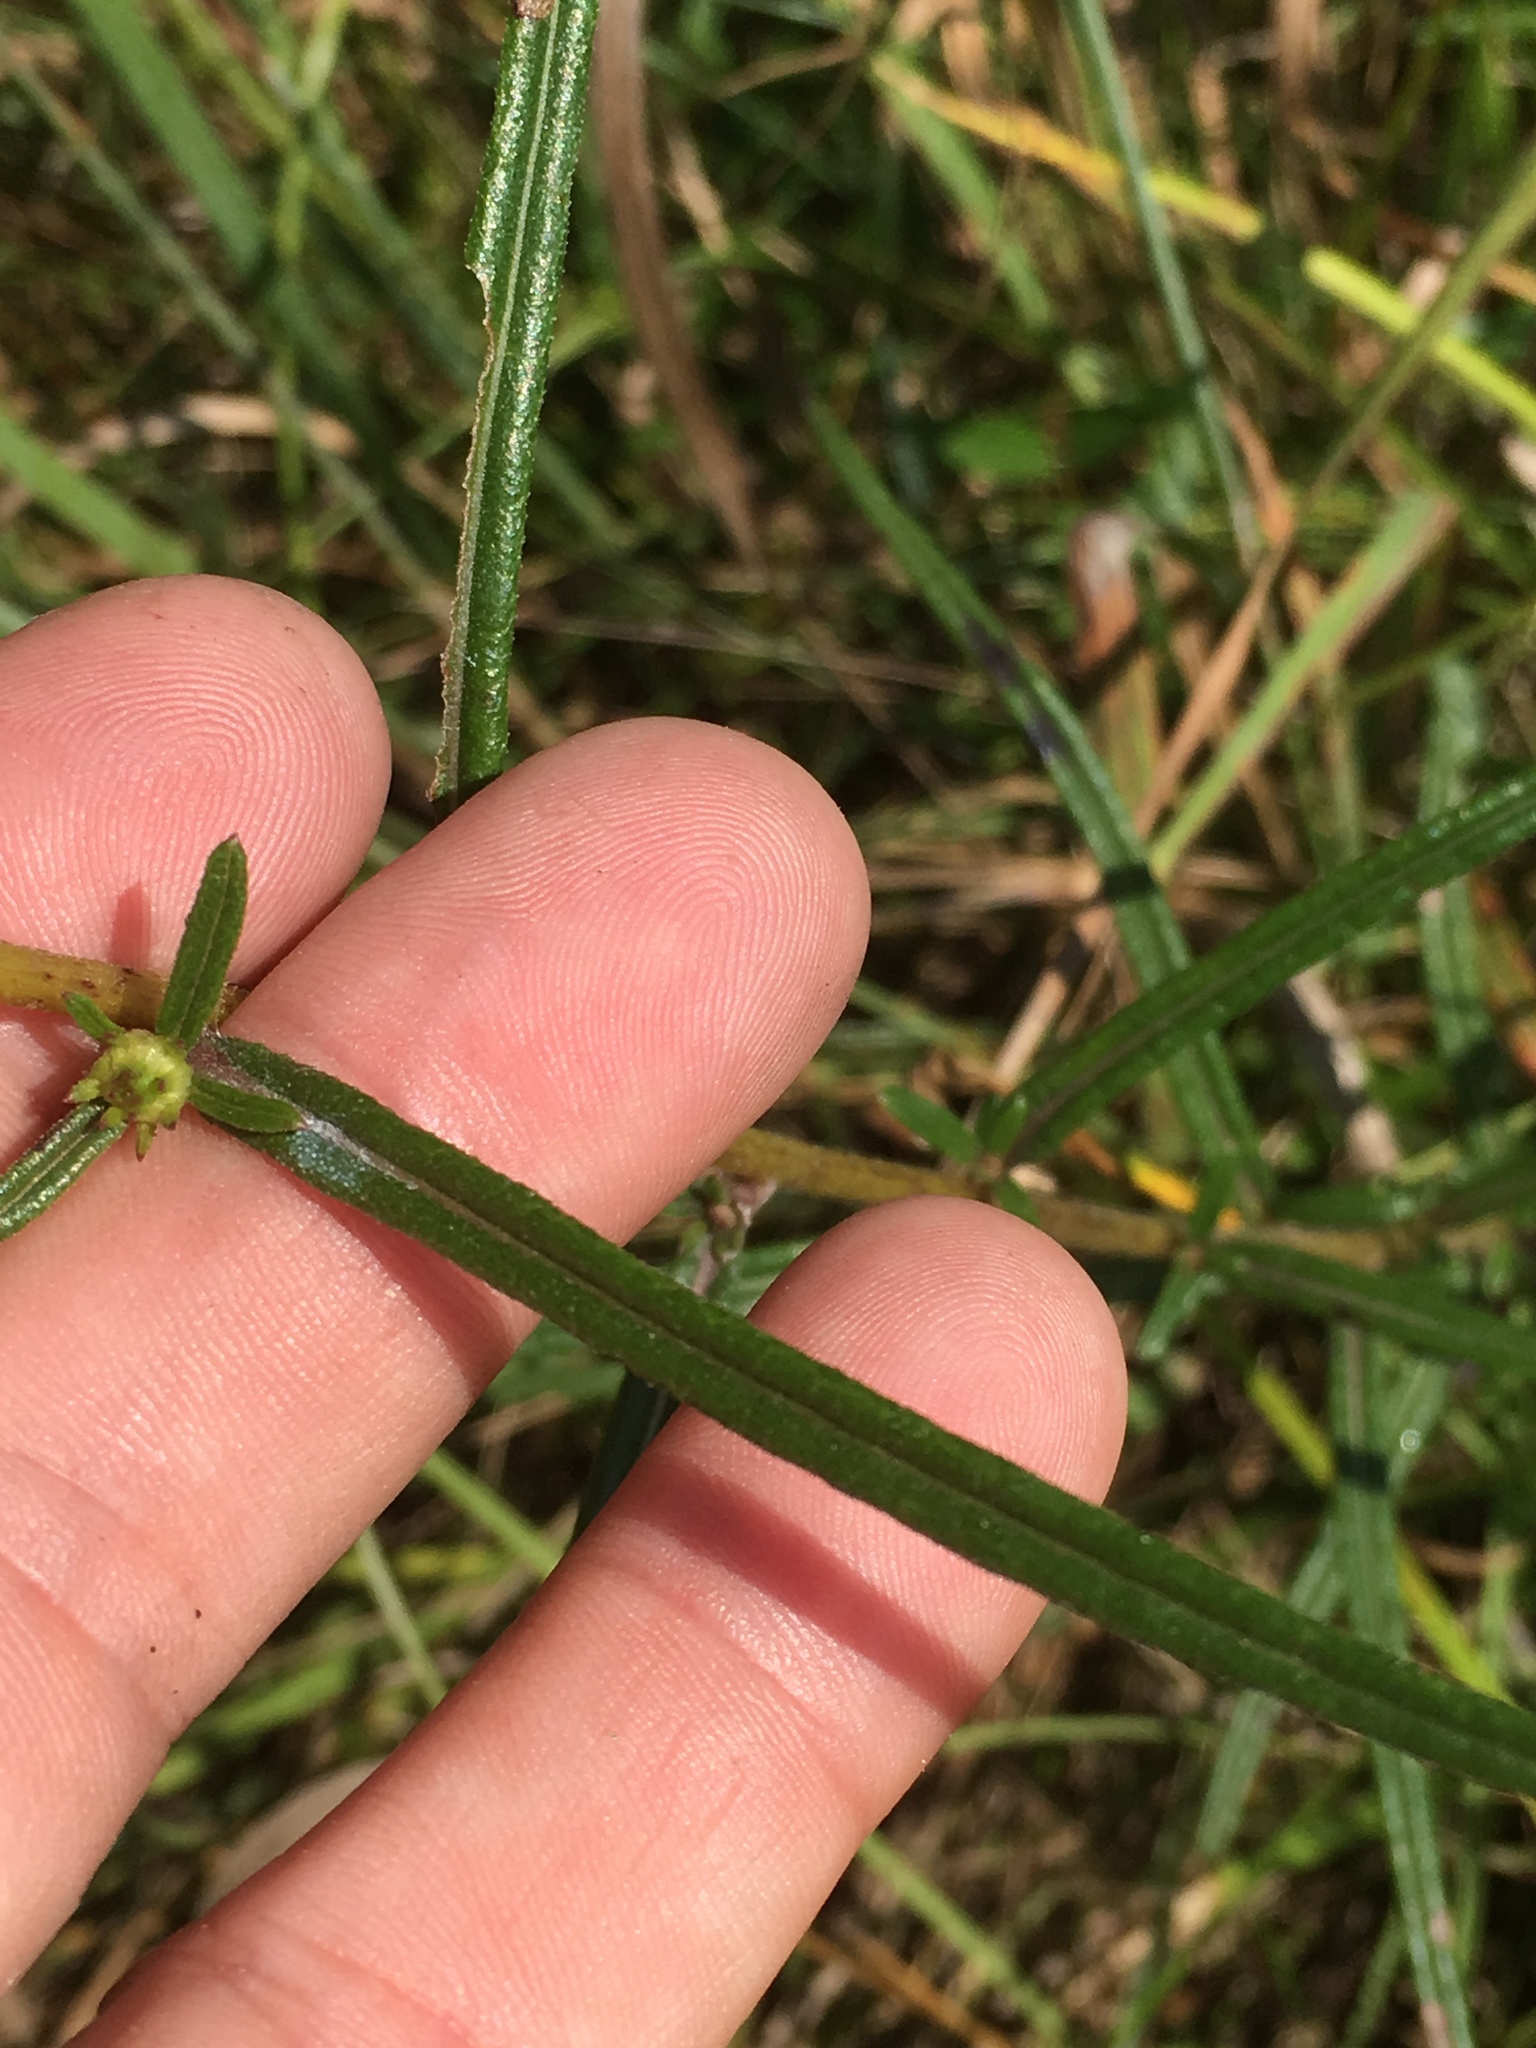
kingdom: Plantae
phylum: Tracheophyta
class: Magnoliopsida
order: Asterales
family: Asteraceae
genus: Helianthus
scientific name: Helianthus angustifolius
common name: Swamp sunflower
